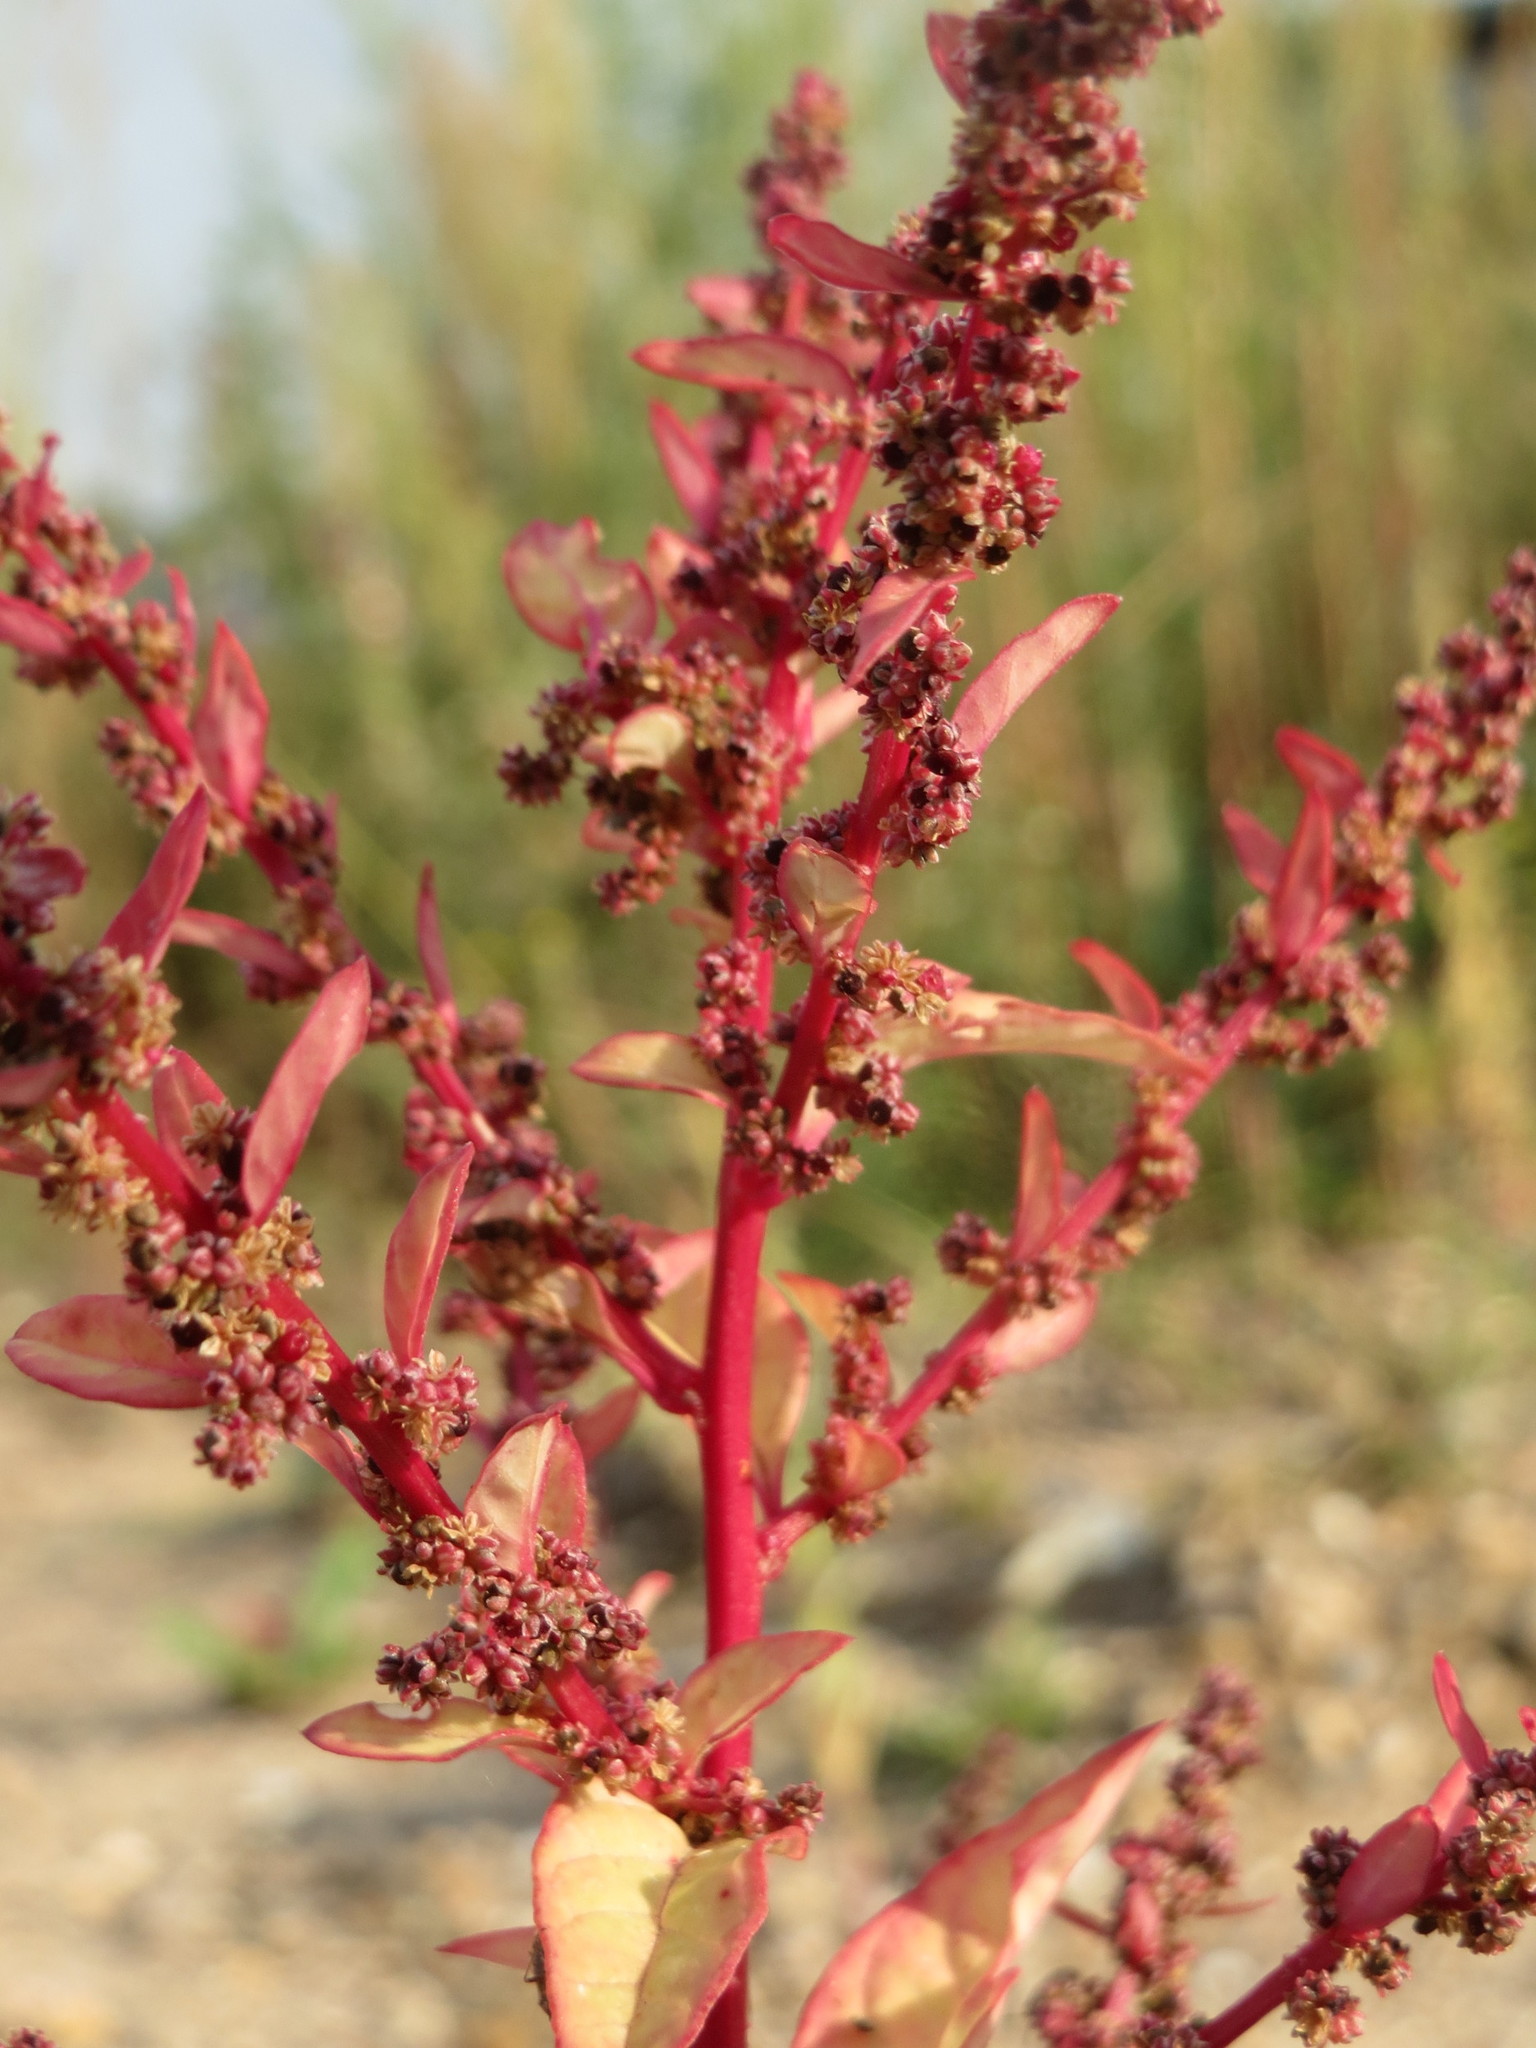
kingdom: Plantae
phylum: Tracheophyta
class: Magnoliopsida
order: Caryophyllales
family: Amaranthaceae
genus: Lipandra
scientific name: Lipandra polysperma
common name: Many-seed goosefoot
